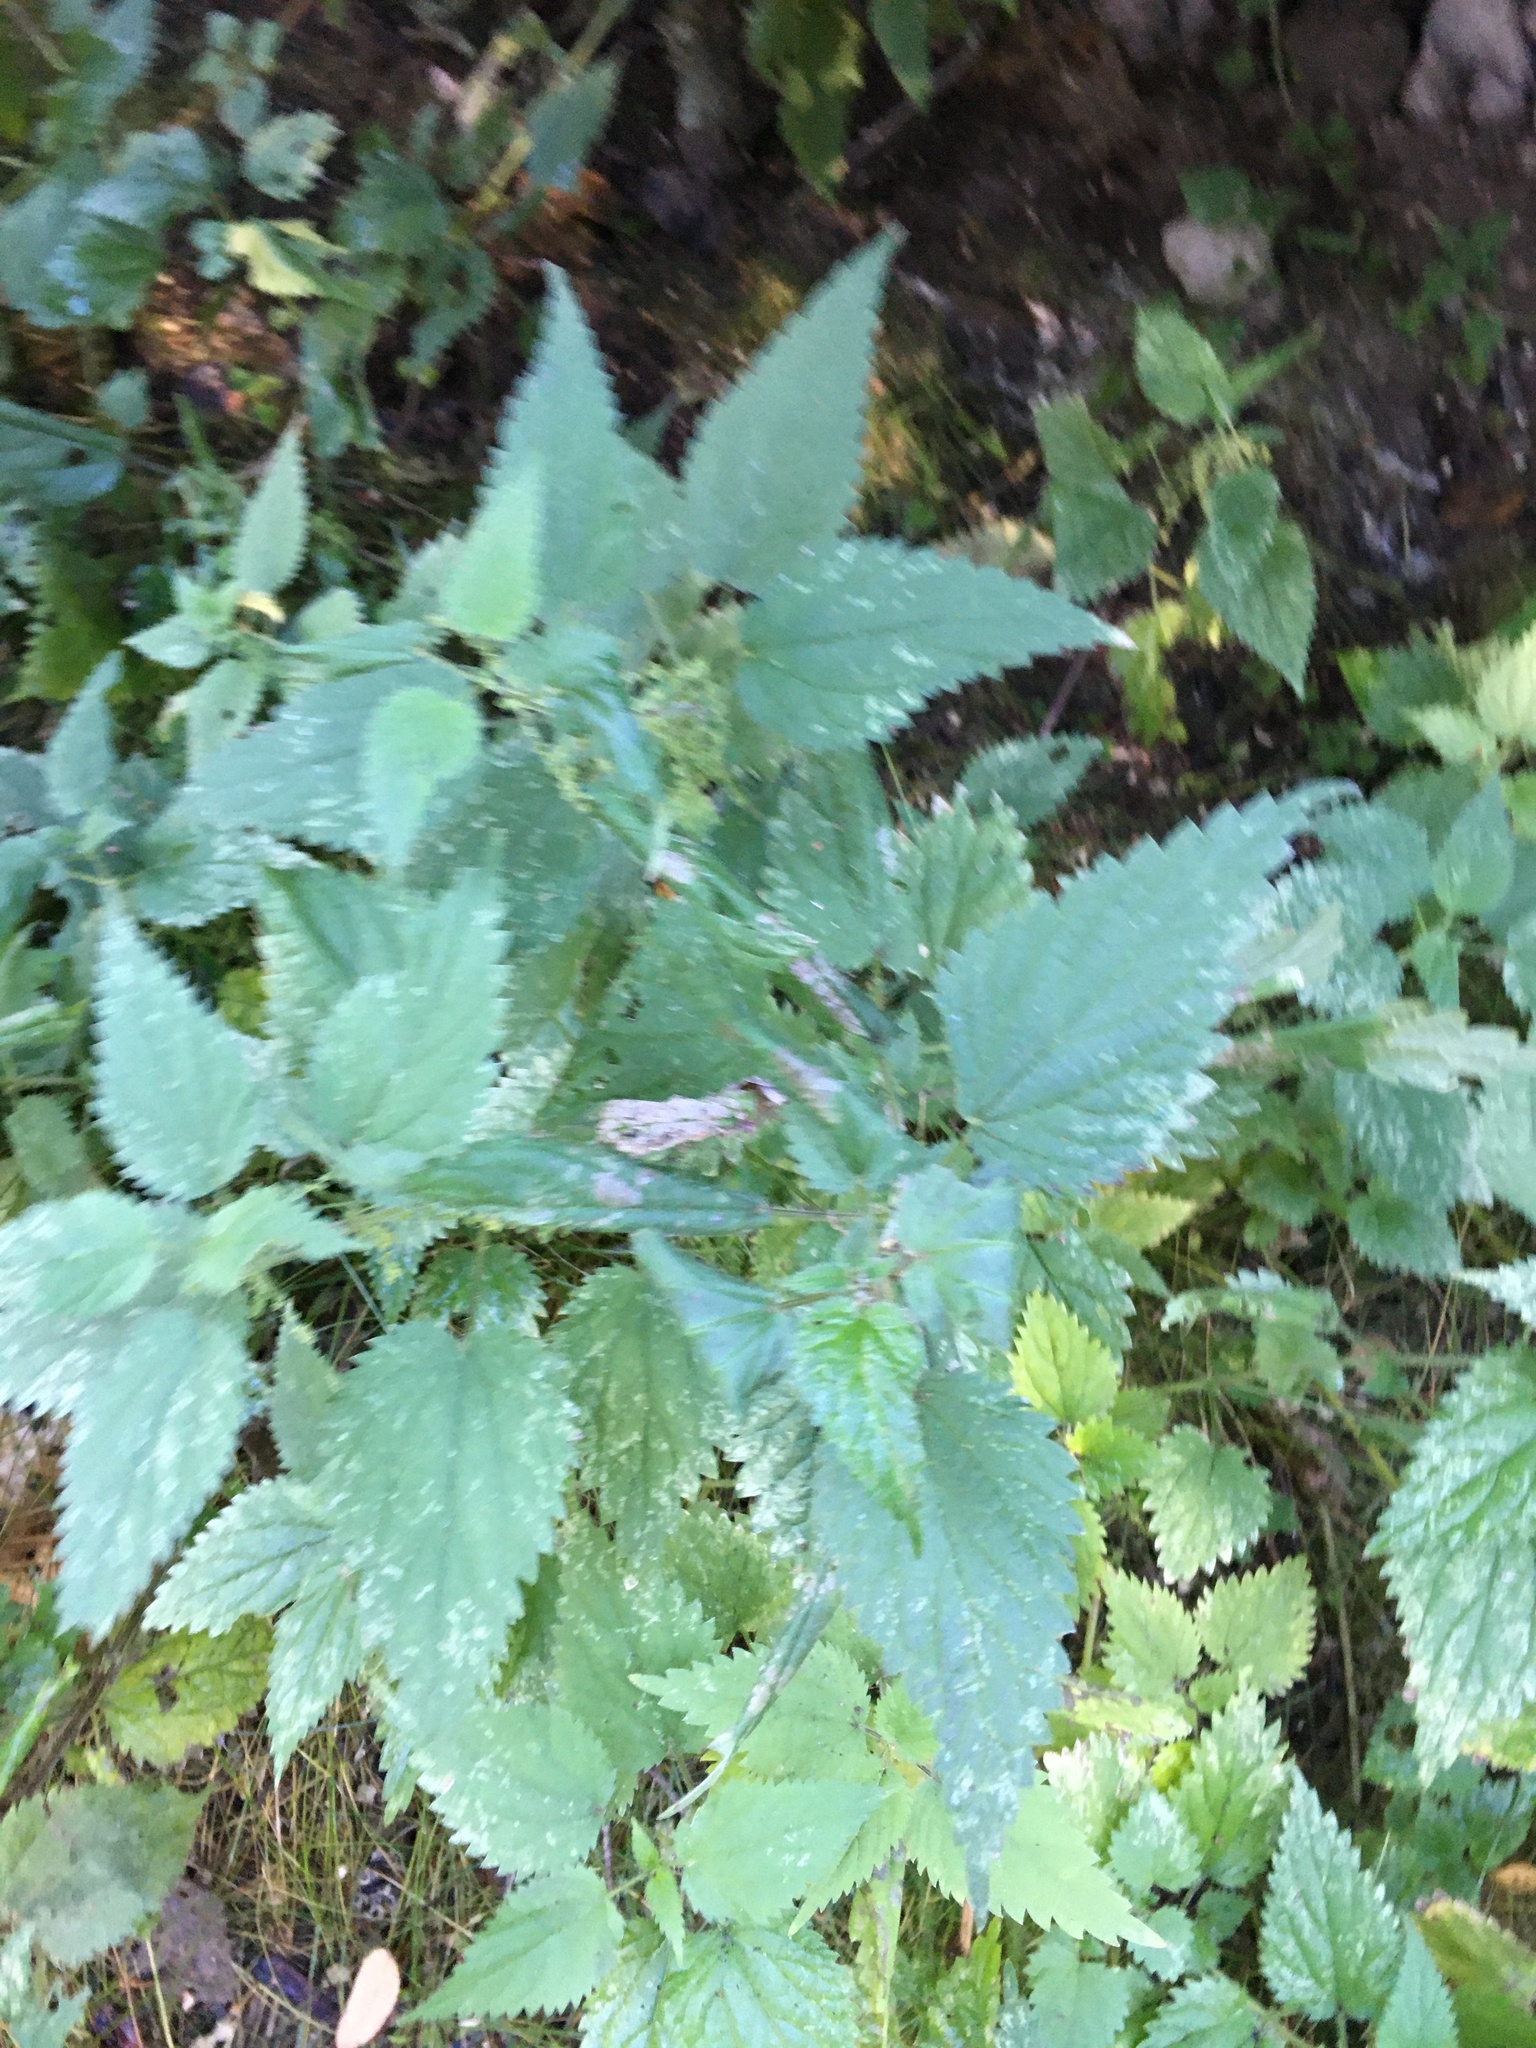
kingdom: Plantae
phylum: Tracheophyta
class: Magnoliopsida
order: Rosales
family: Urticaceae
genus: Urtica
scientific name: Urtica dioica
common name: Common nettle
